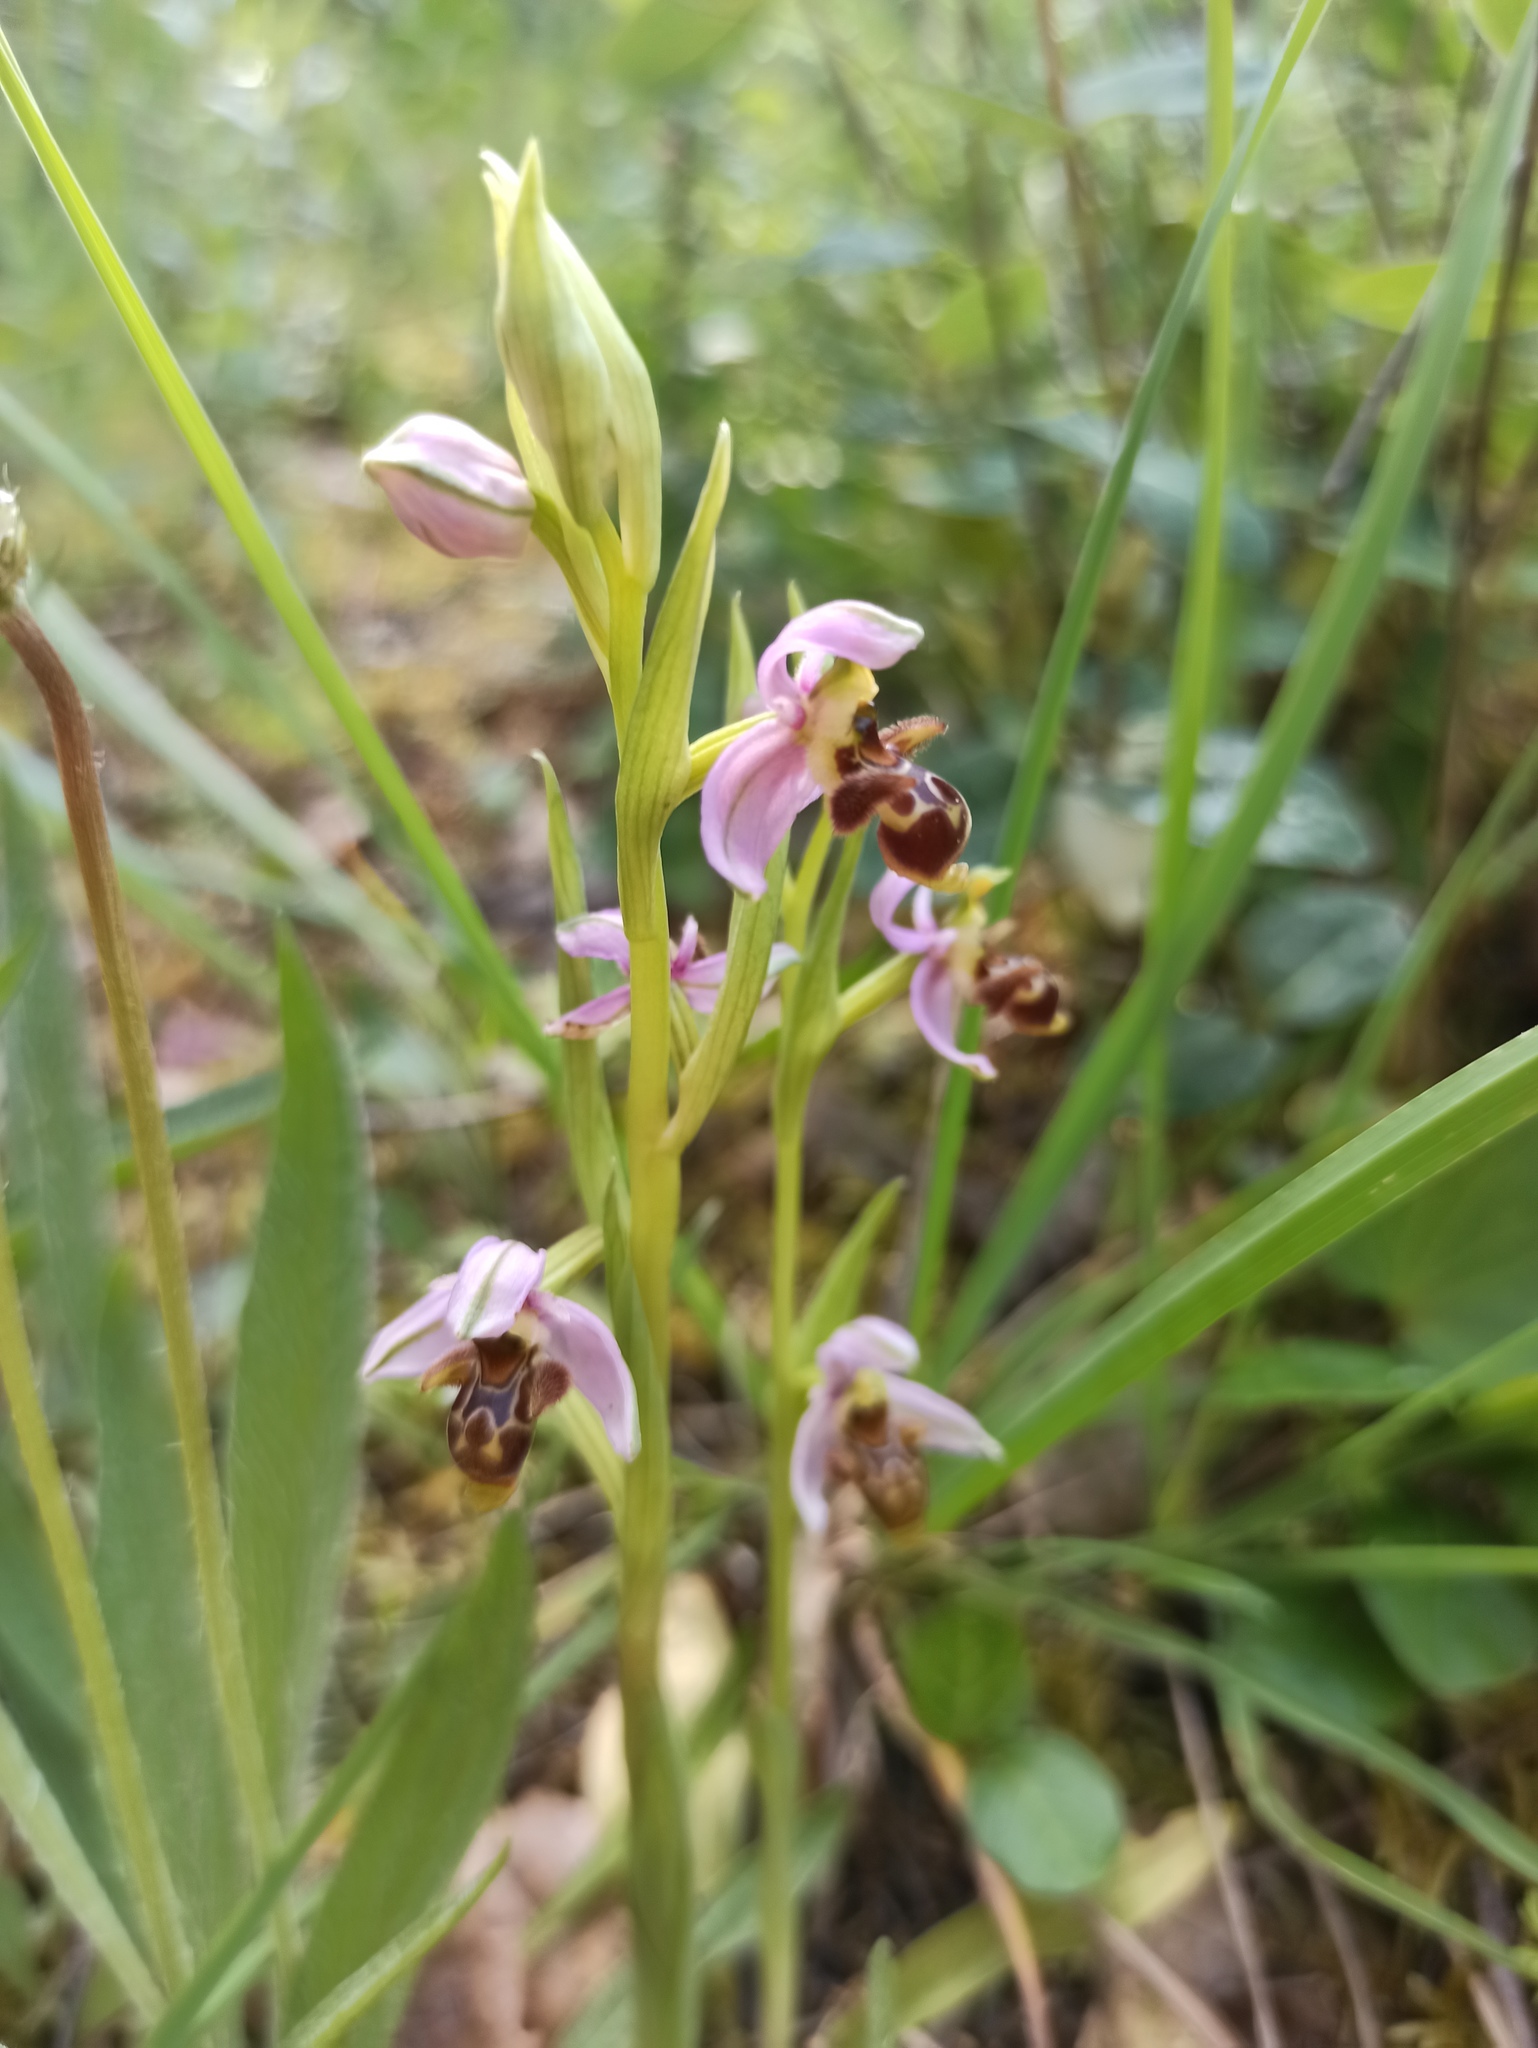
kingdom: Plantae
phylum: Tracheophyta
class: Liliopsida
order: Asparagales
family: Orchidaceae
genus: Ophrys
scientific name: Ophrys scolopax
